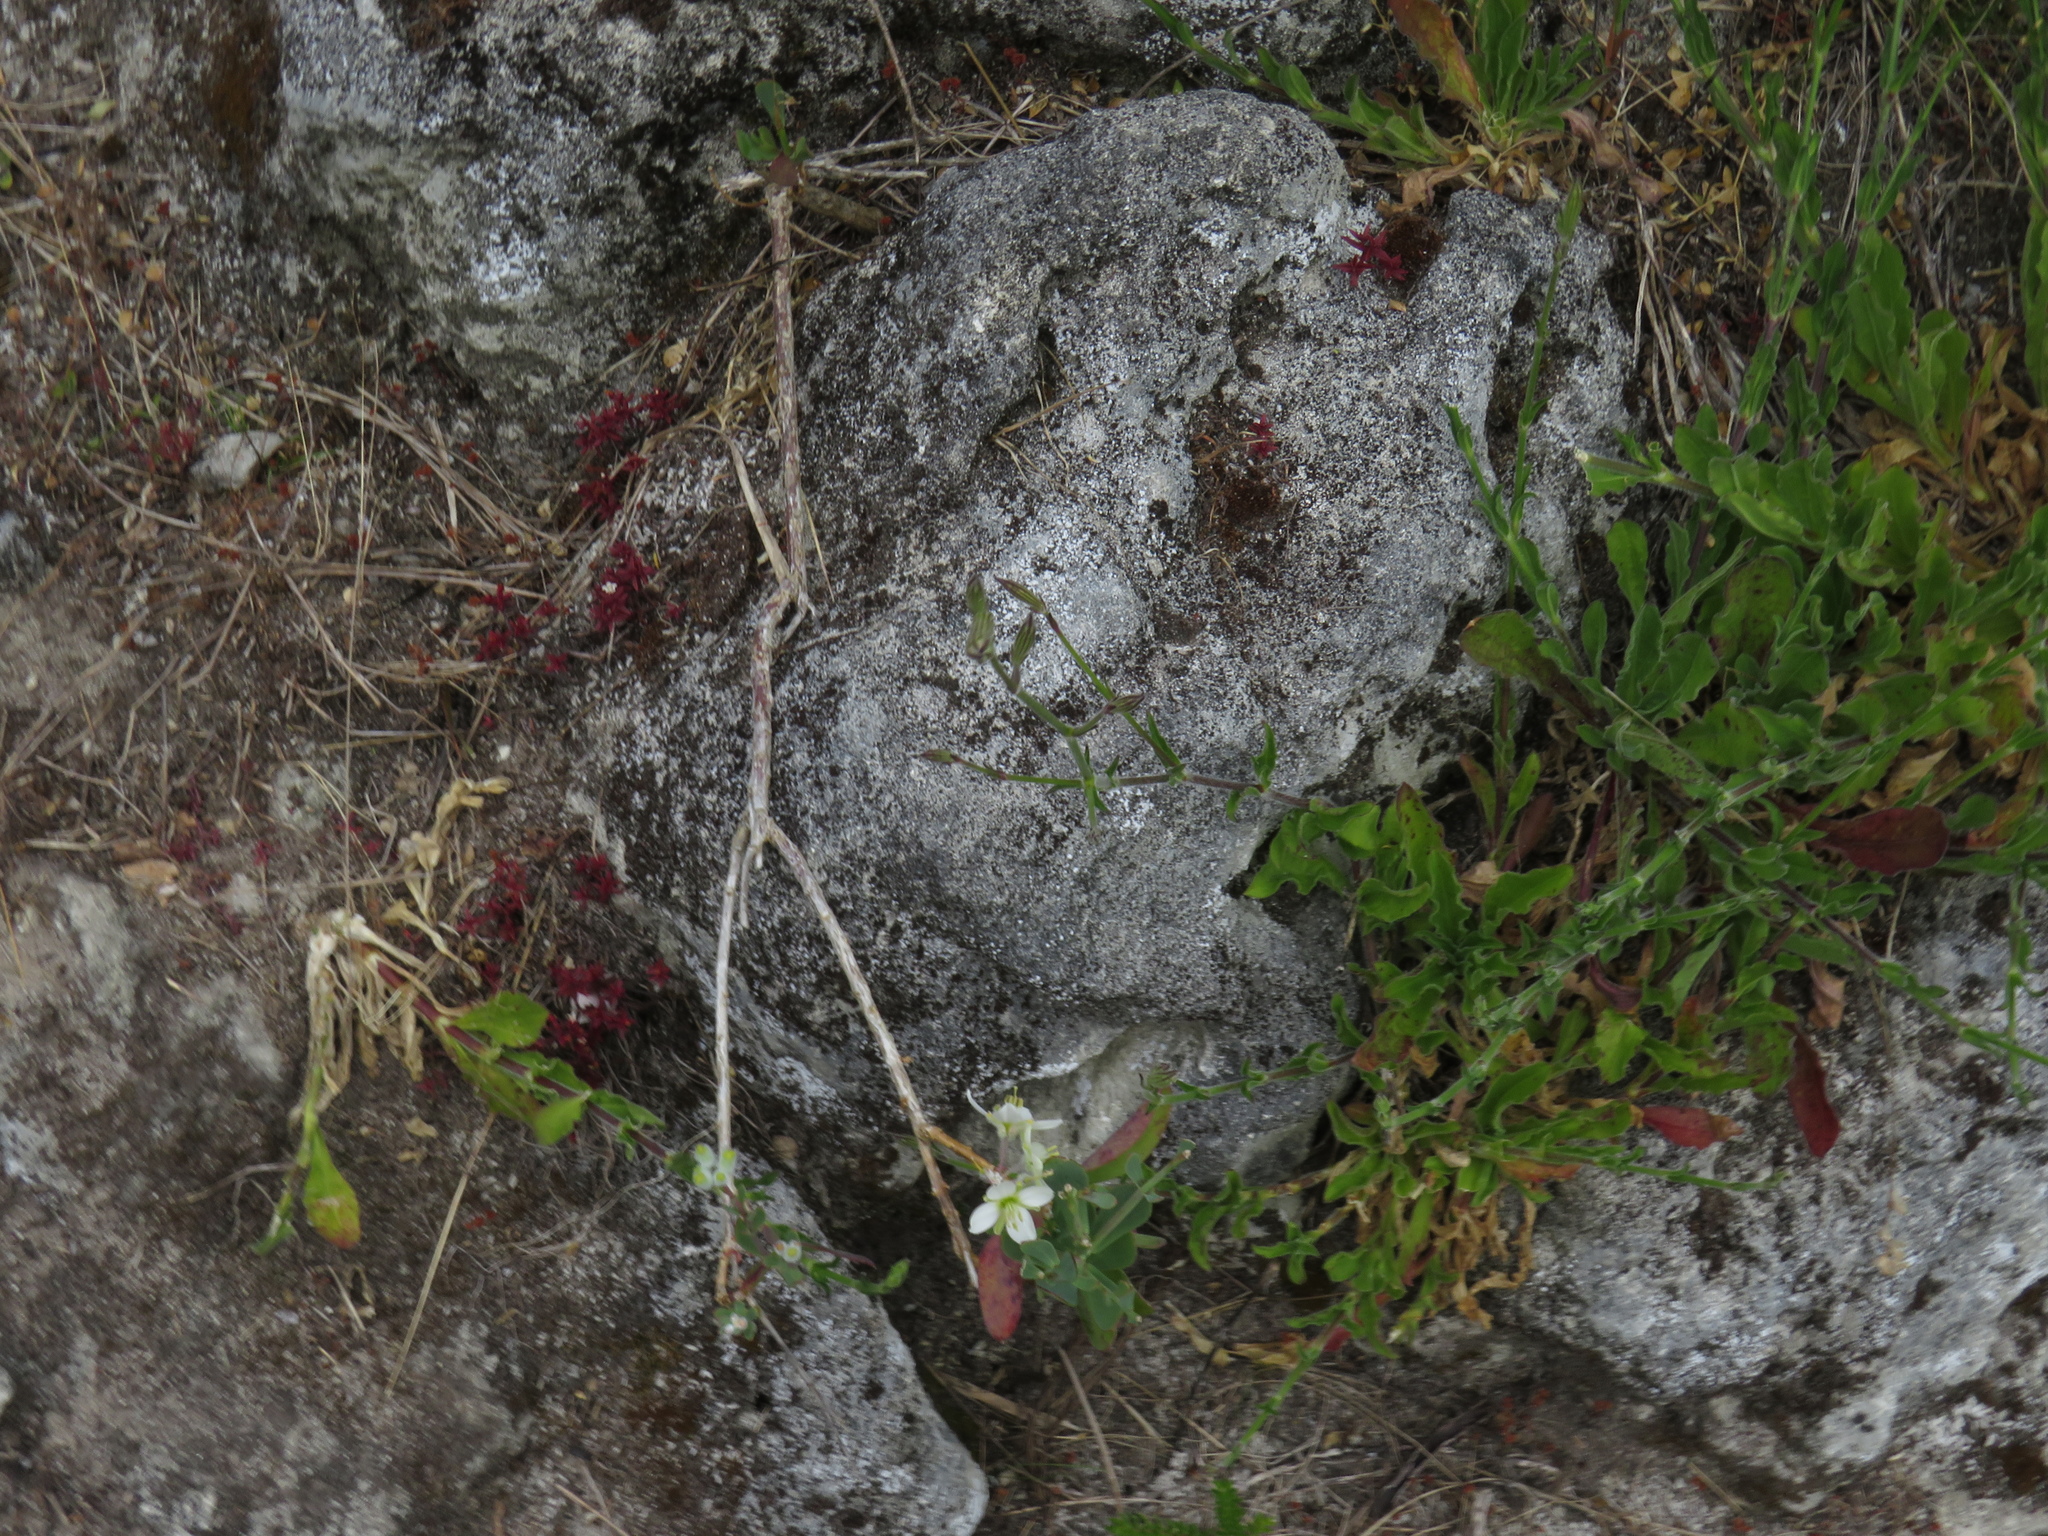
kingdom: Plantae
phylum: Tracheophyta
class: Magnoliopsida
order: Caryophyllales
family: Caryophyllaceae
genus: Silene
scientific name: Silene undulata
